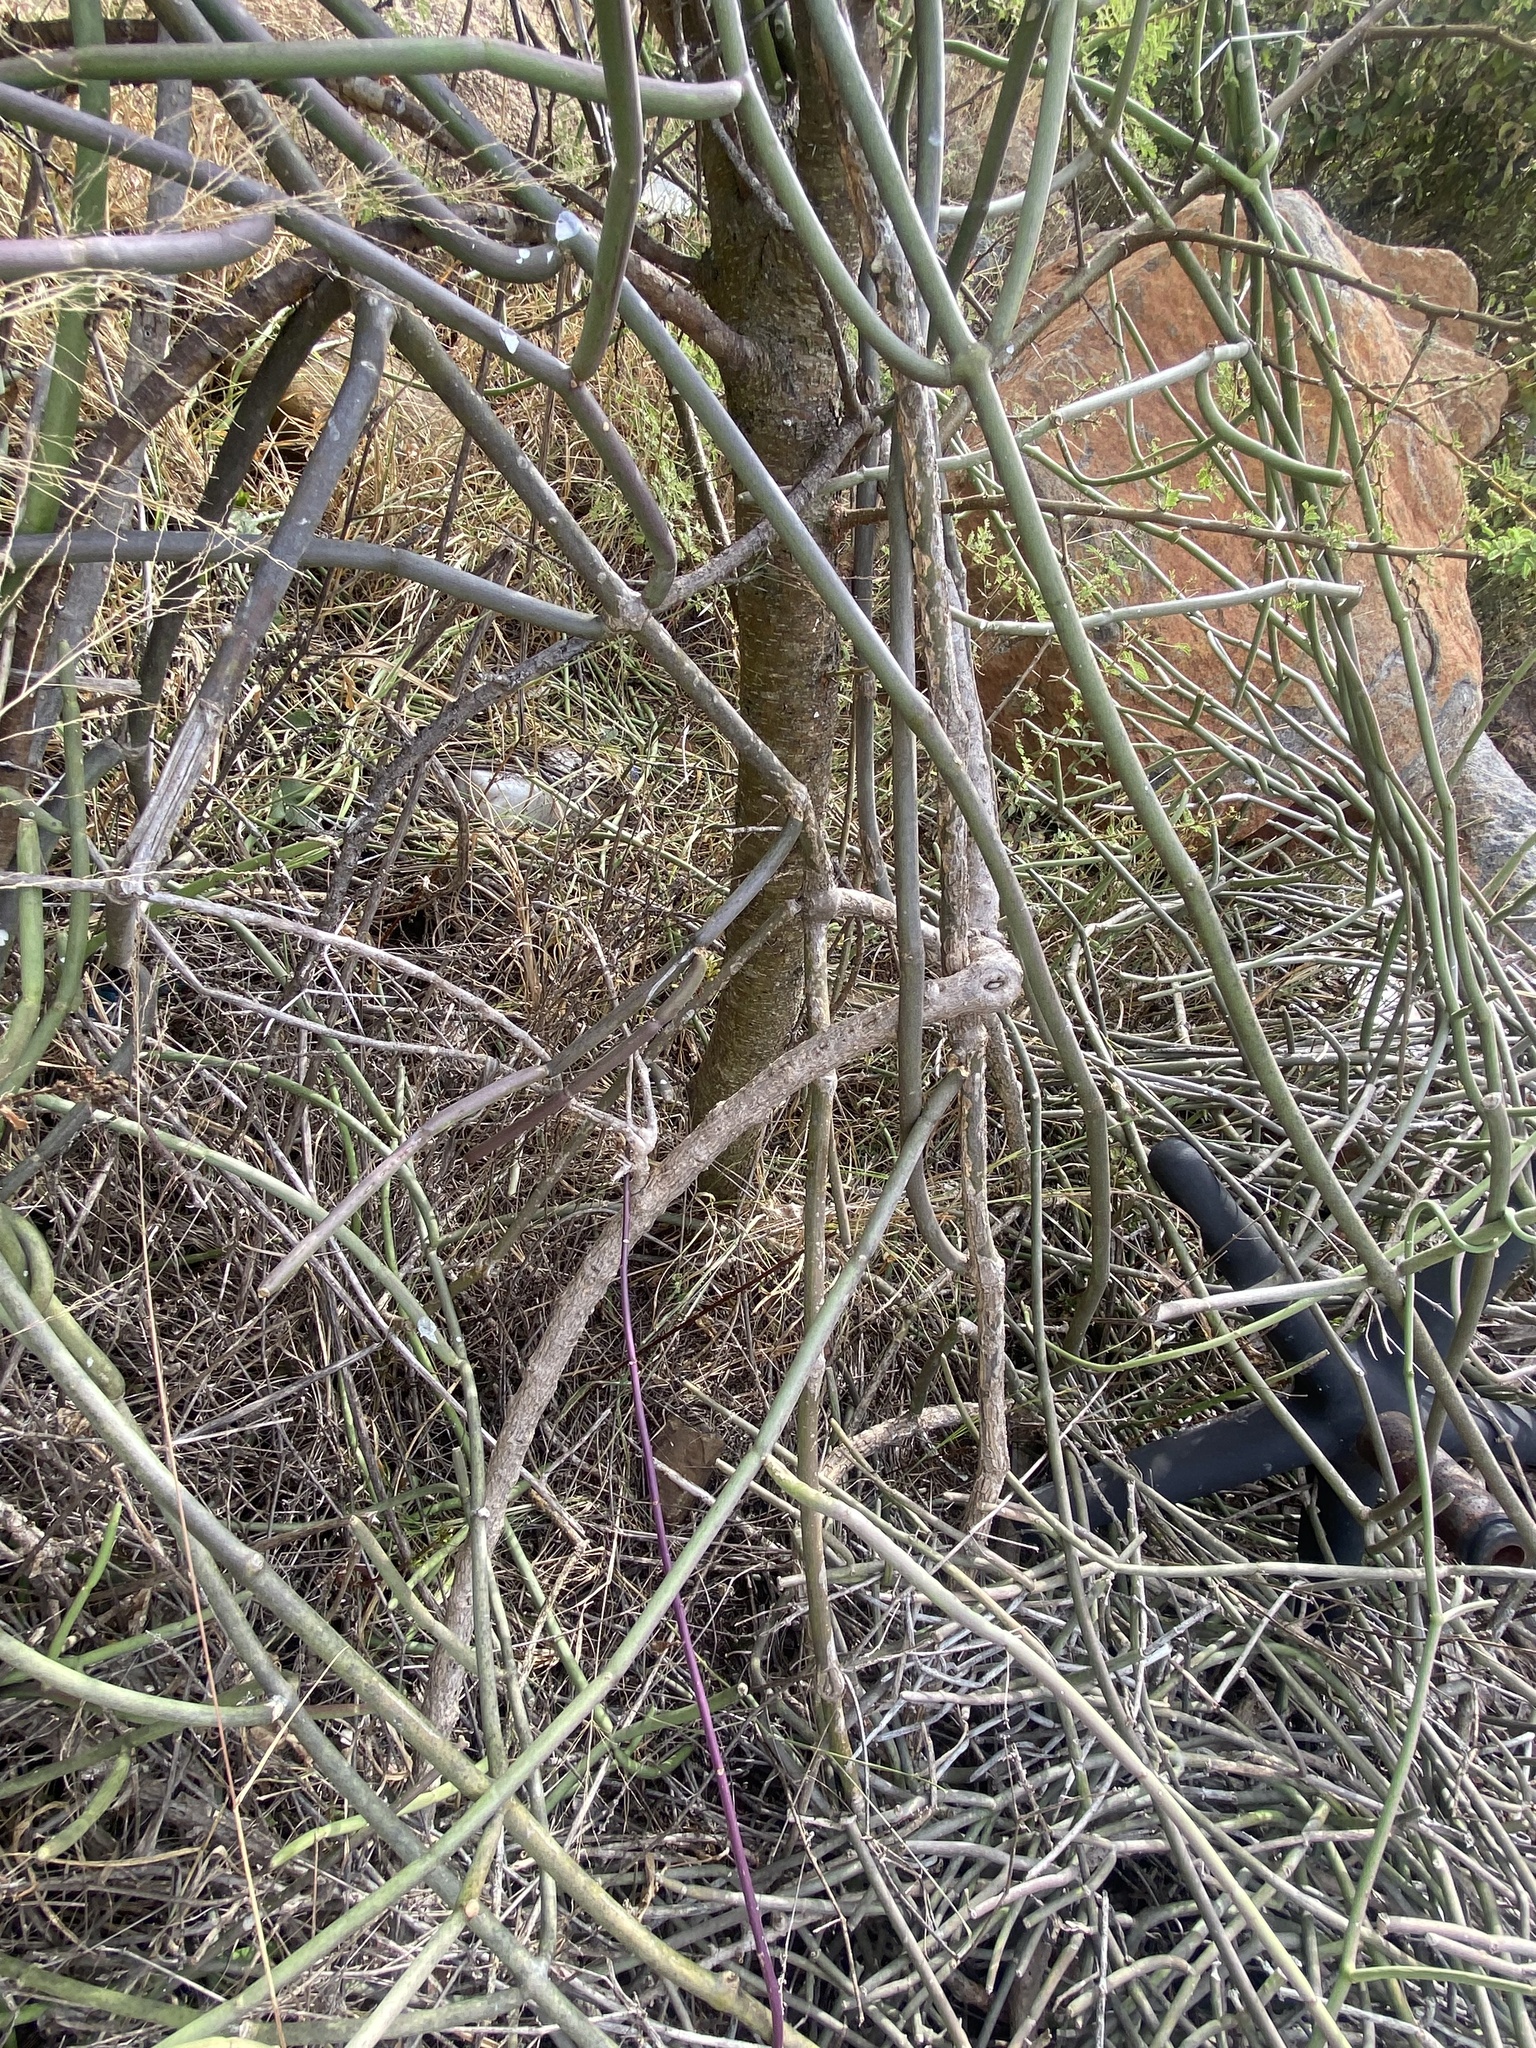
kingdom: Plantae
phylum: Tracheophyta
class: Magnoliopsida
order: Gentianales
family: Apocynaceae
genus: Cynanchum
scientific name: Cynanchum viminale
